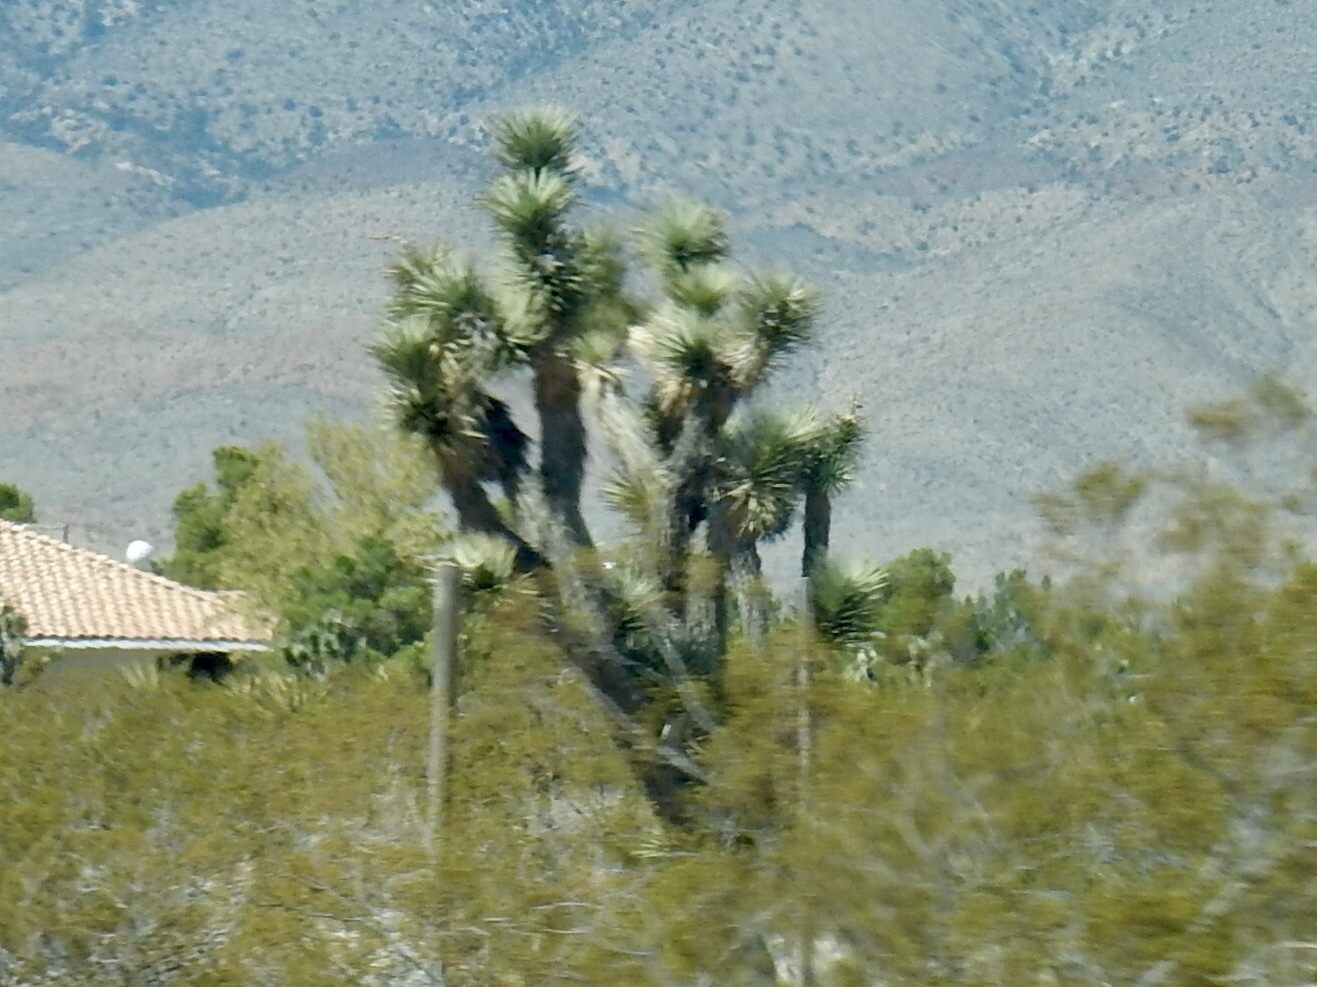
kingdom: Plantae
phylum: Tracheophyta
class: Liliopsida
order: Asparagales
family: Asparagaceae
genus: Yucca
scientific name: Yucca brevifolia
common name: Joshua tree
